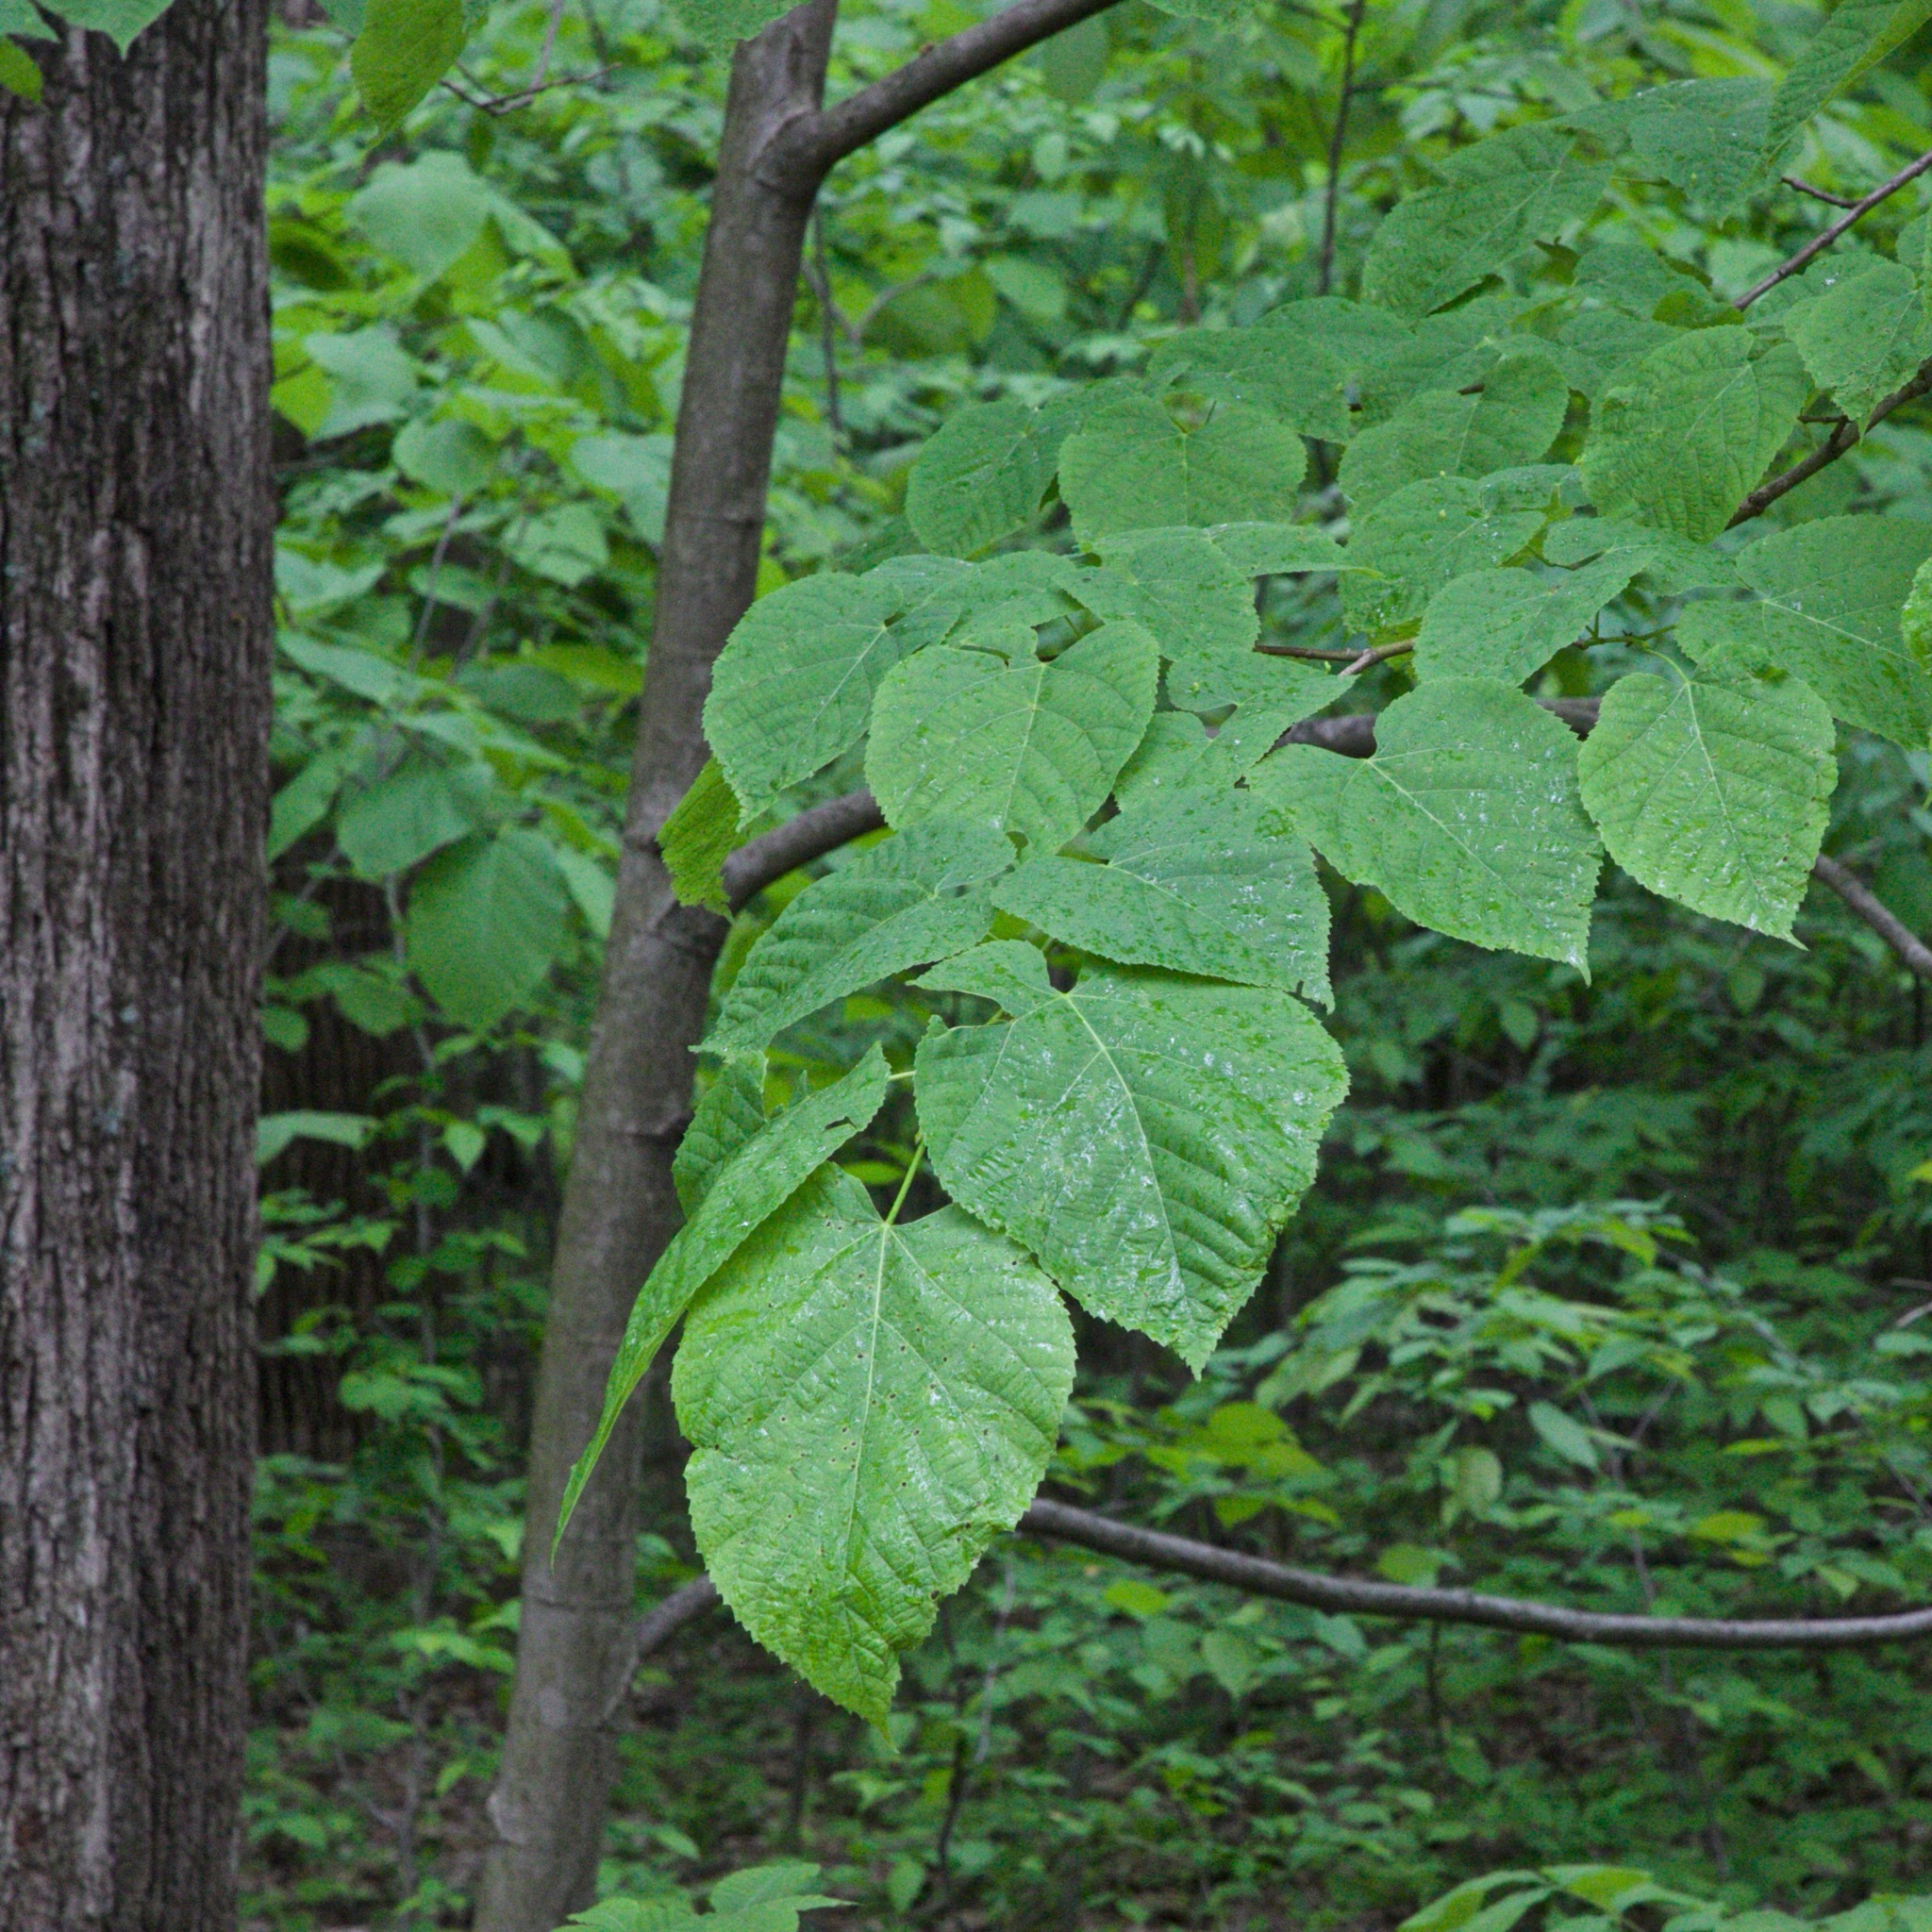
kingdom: Plantae
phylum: Tracheophyta
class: Magnoliopsida
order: Malvales
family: Malvaceae
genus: Tilia
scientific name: Tilia americana
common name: Basswood
